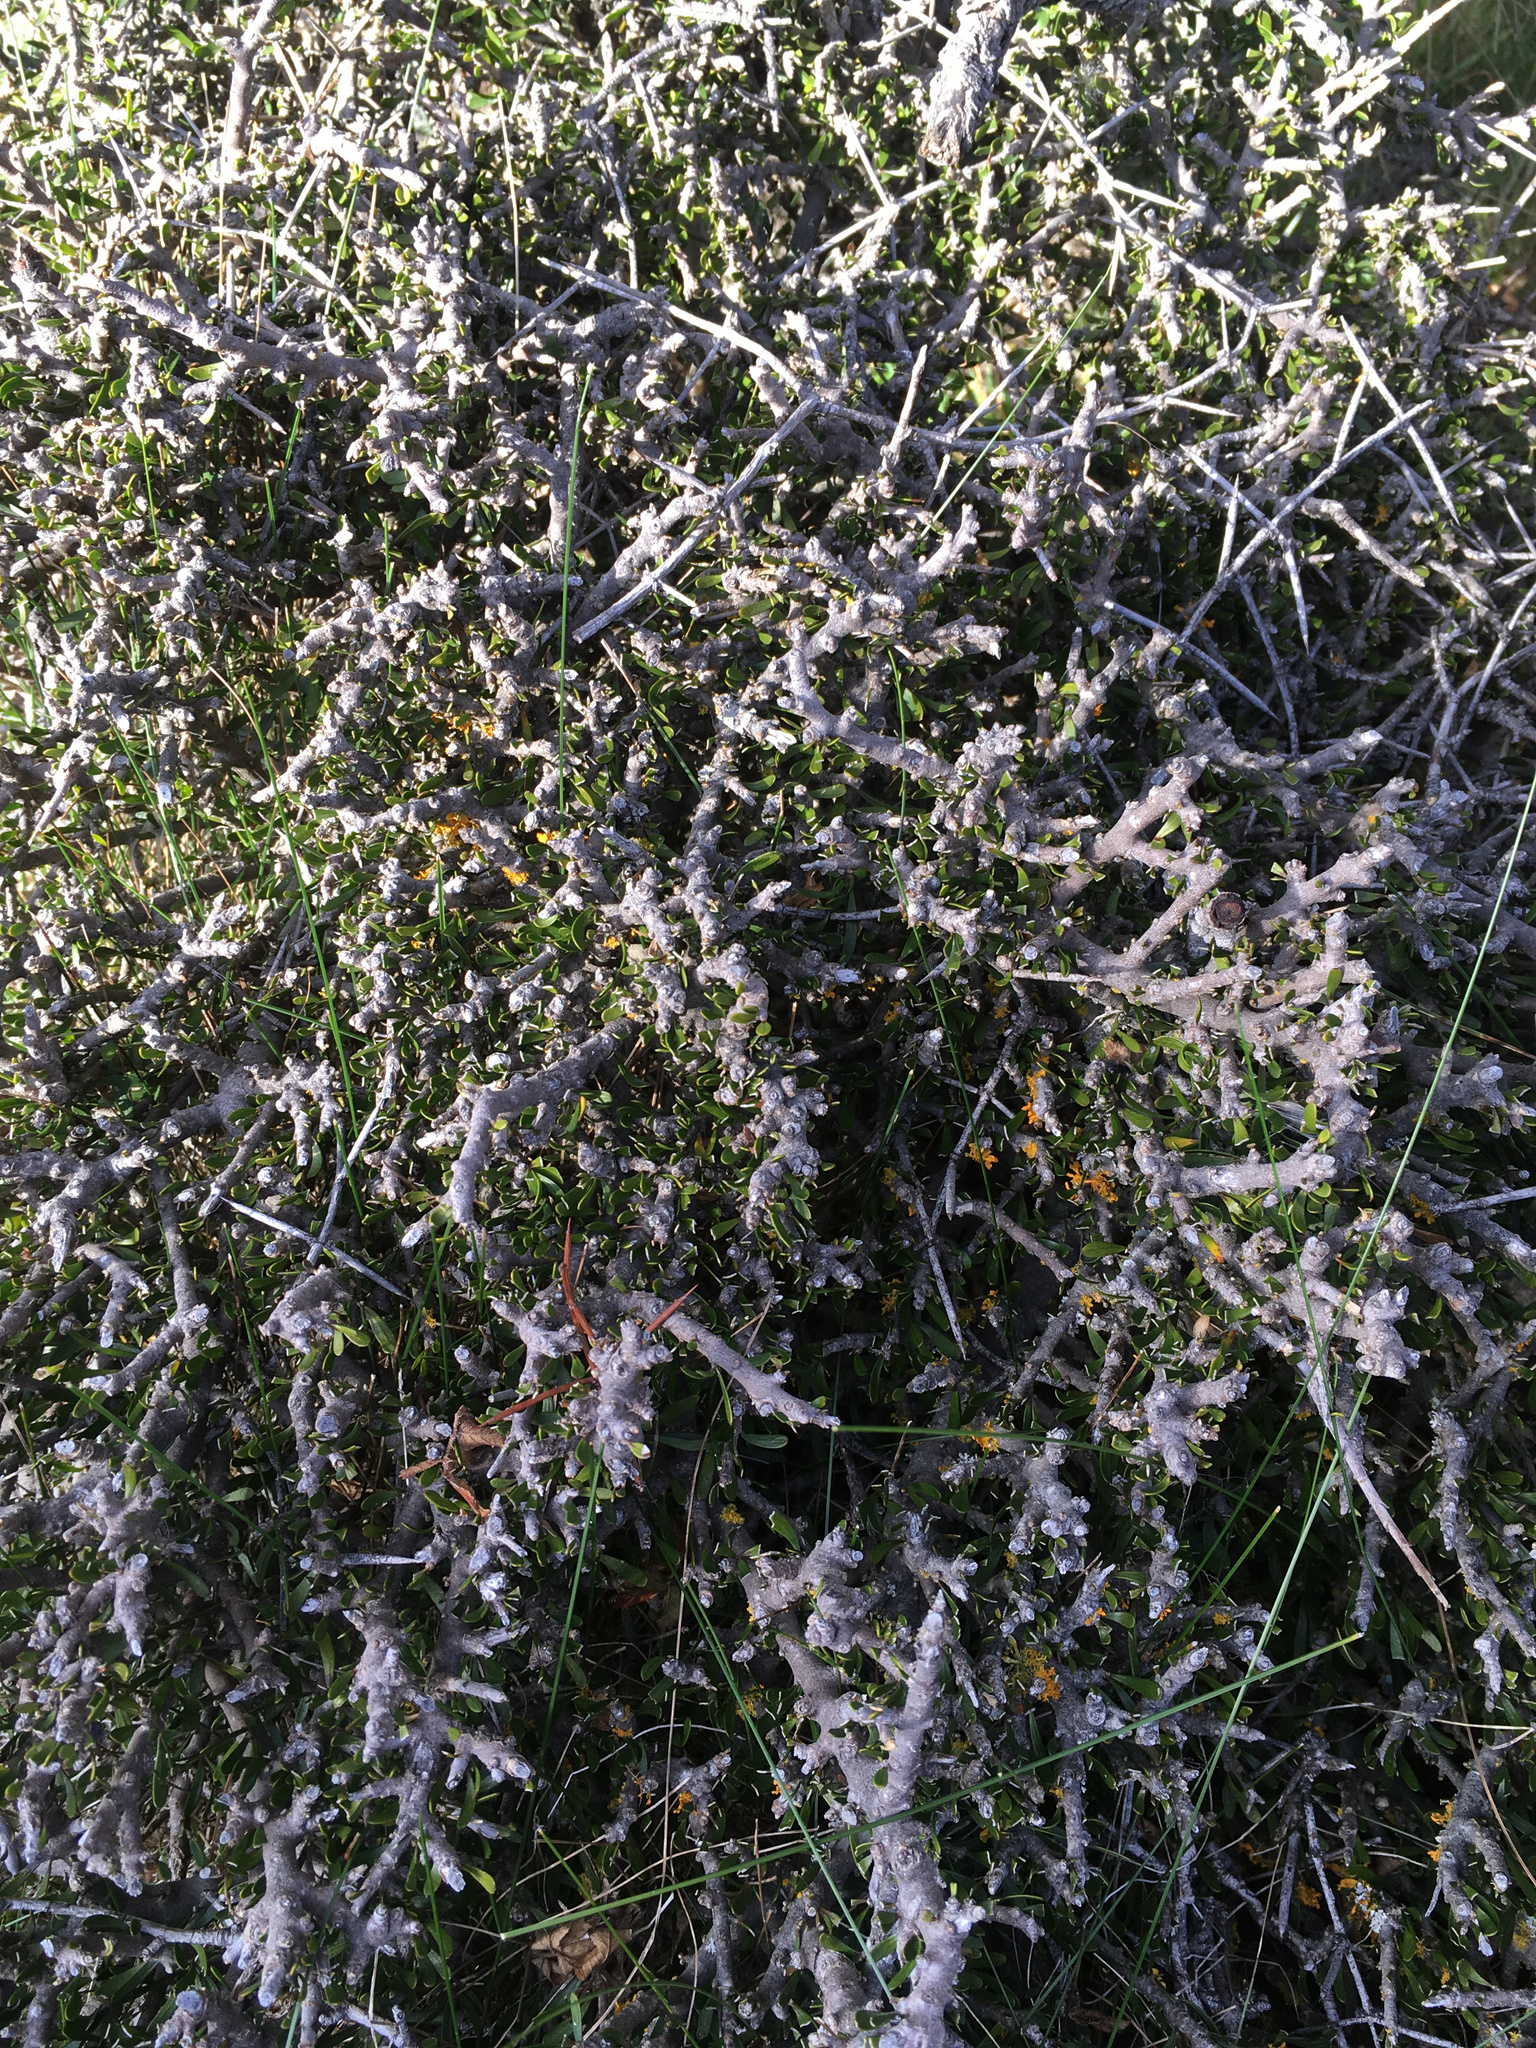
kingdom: Plantae
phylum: Tracheophyta
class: Magnoliopsida
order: Malpighiales
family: Violaceae
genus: Melicytus
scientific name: Melicytus alpinus
